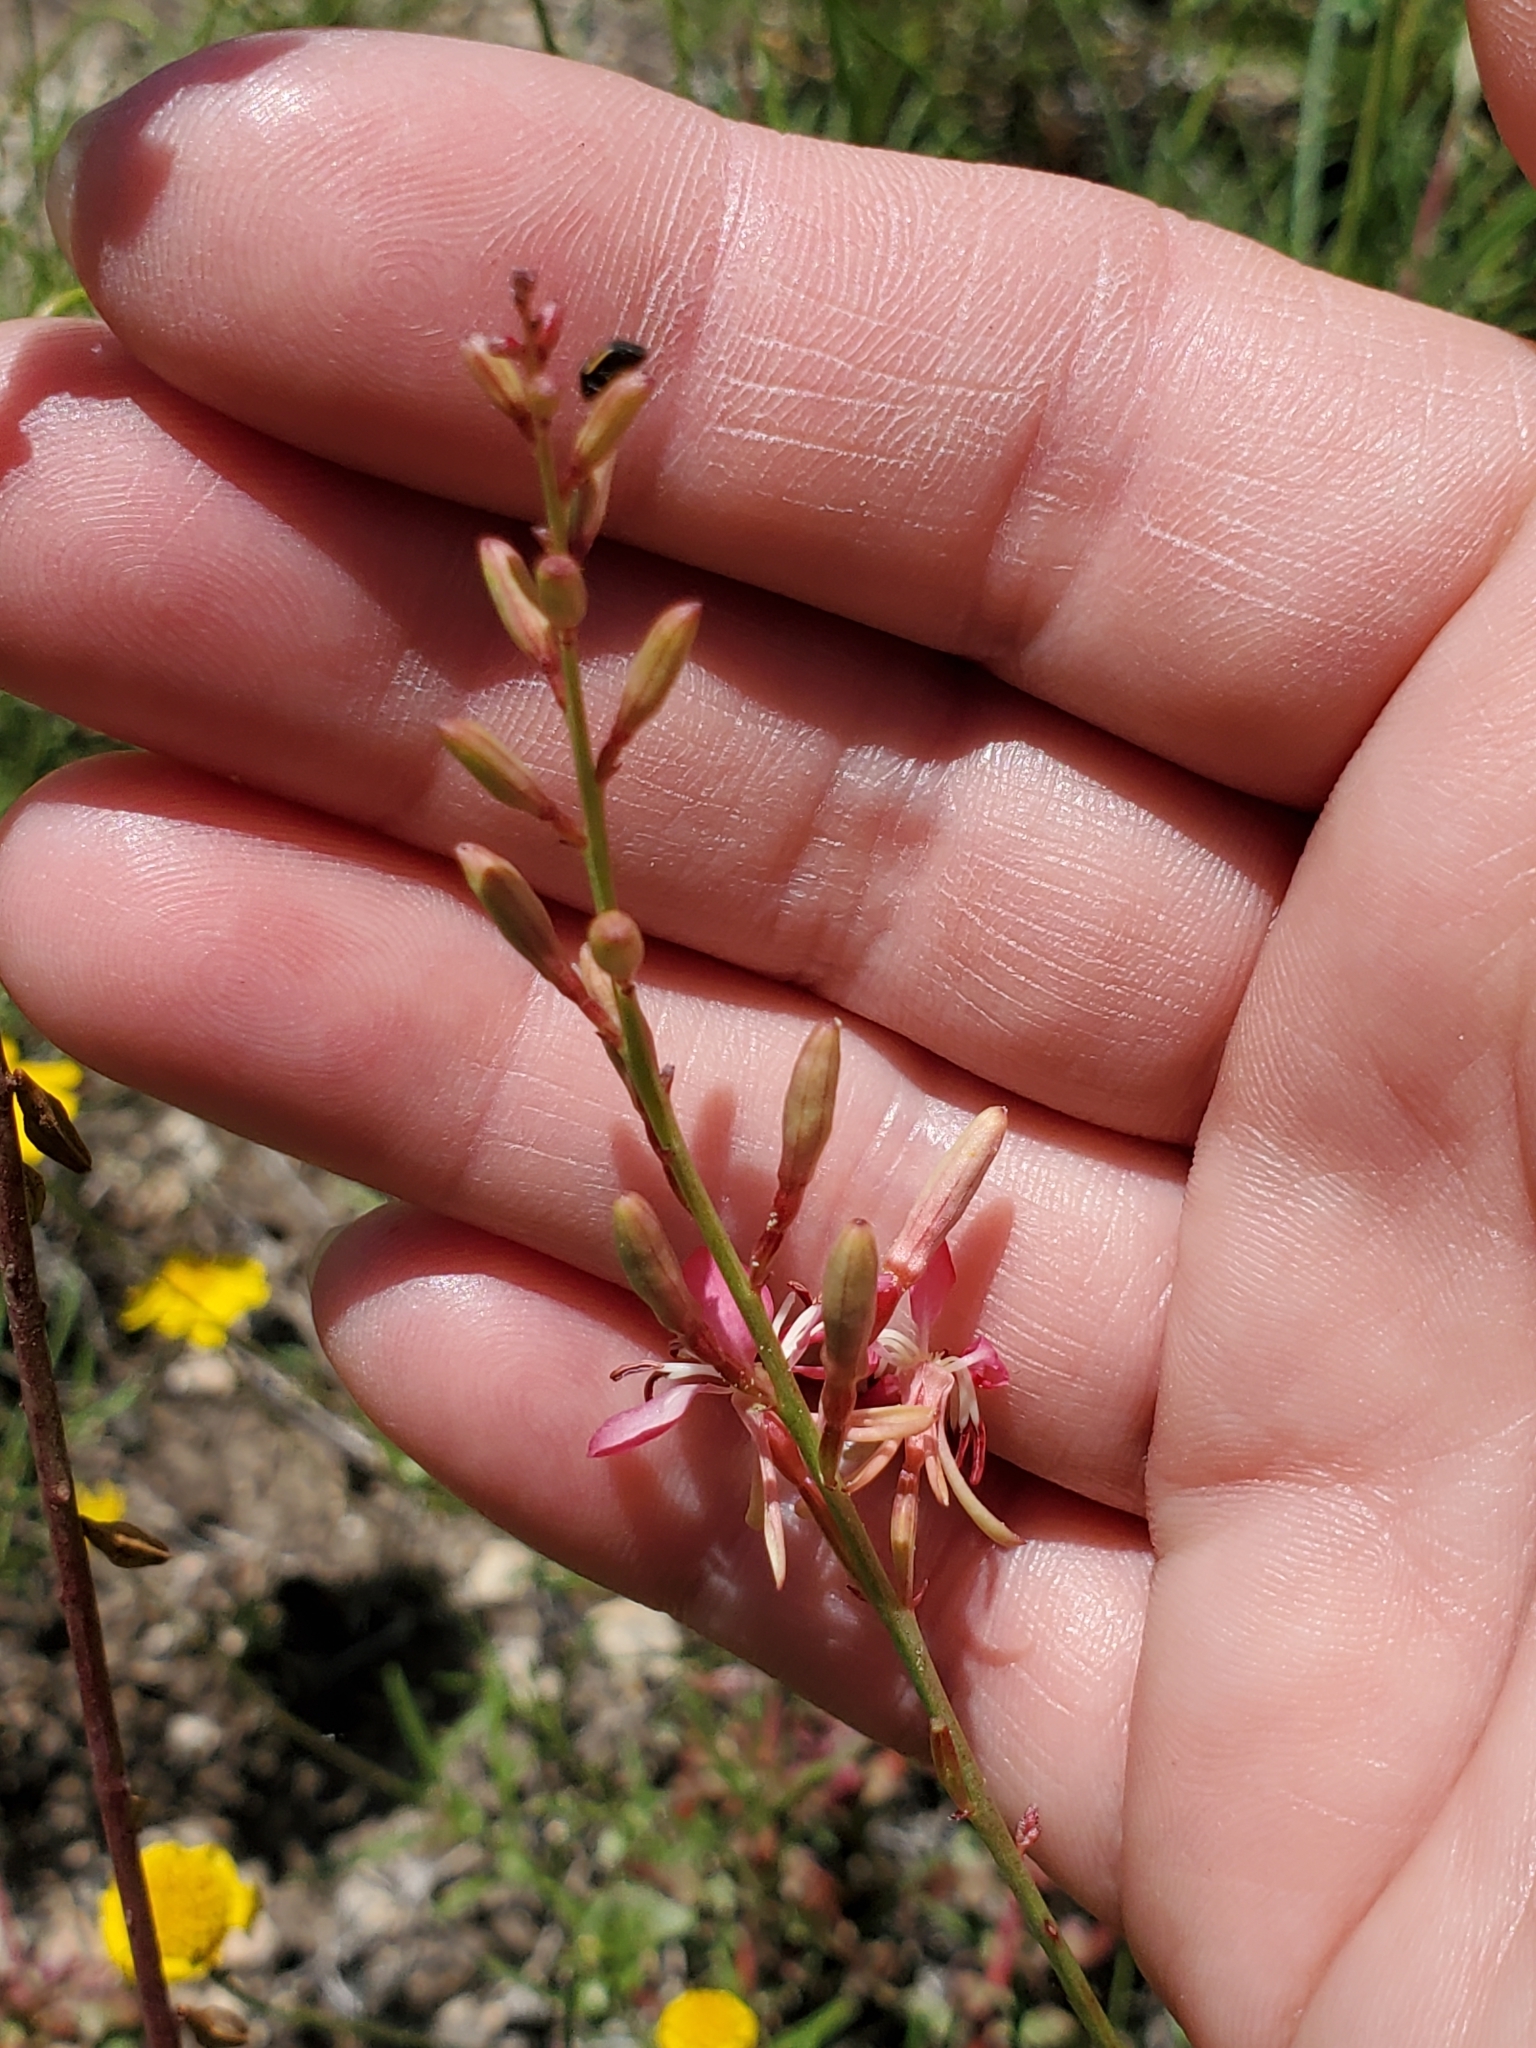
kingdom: Plantae
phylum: Tracheophyta
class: Magnoliopsida
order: Myrtales
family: Onagraceae
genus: Oenothera
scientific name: Oenothera suffrutescens
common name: Scarlet beeblossom
